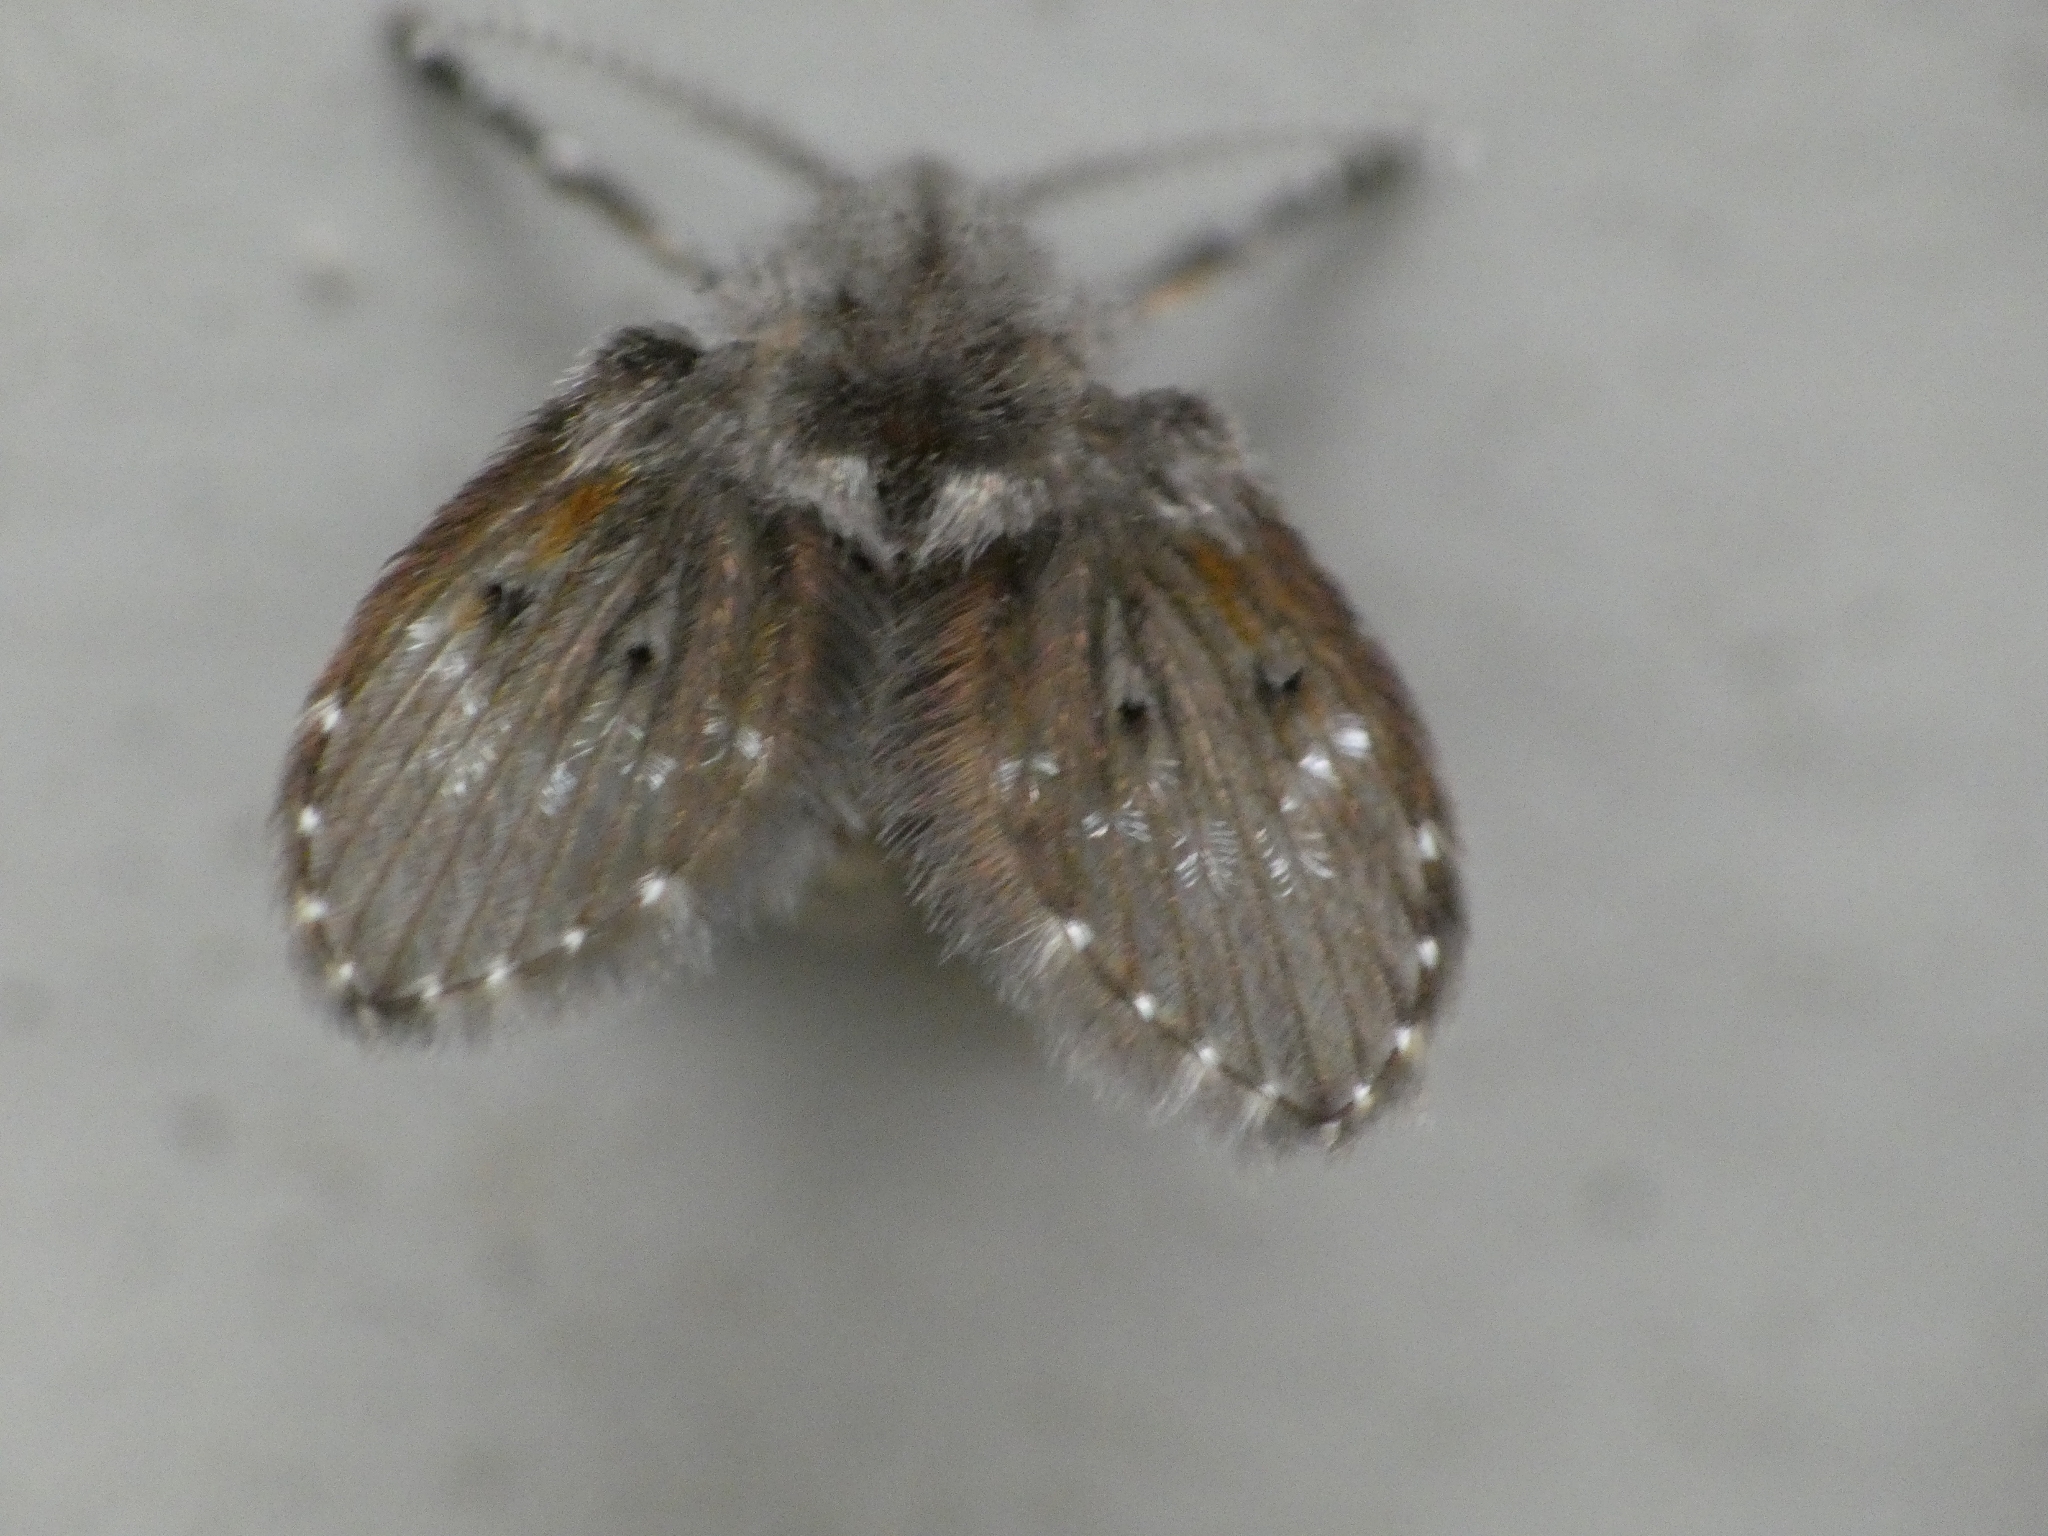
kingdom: Animalia
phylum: Arthropoda
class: Insecta
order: Diptera
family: Psychodidae
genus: Clogmia
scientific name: Clogmia albipunctatus
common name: White-spotted moth fly
